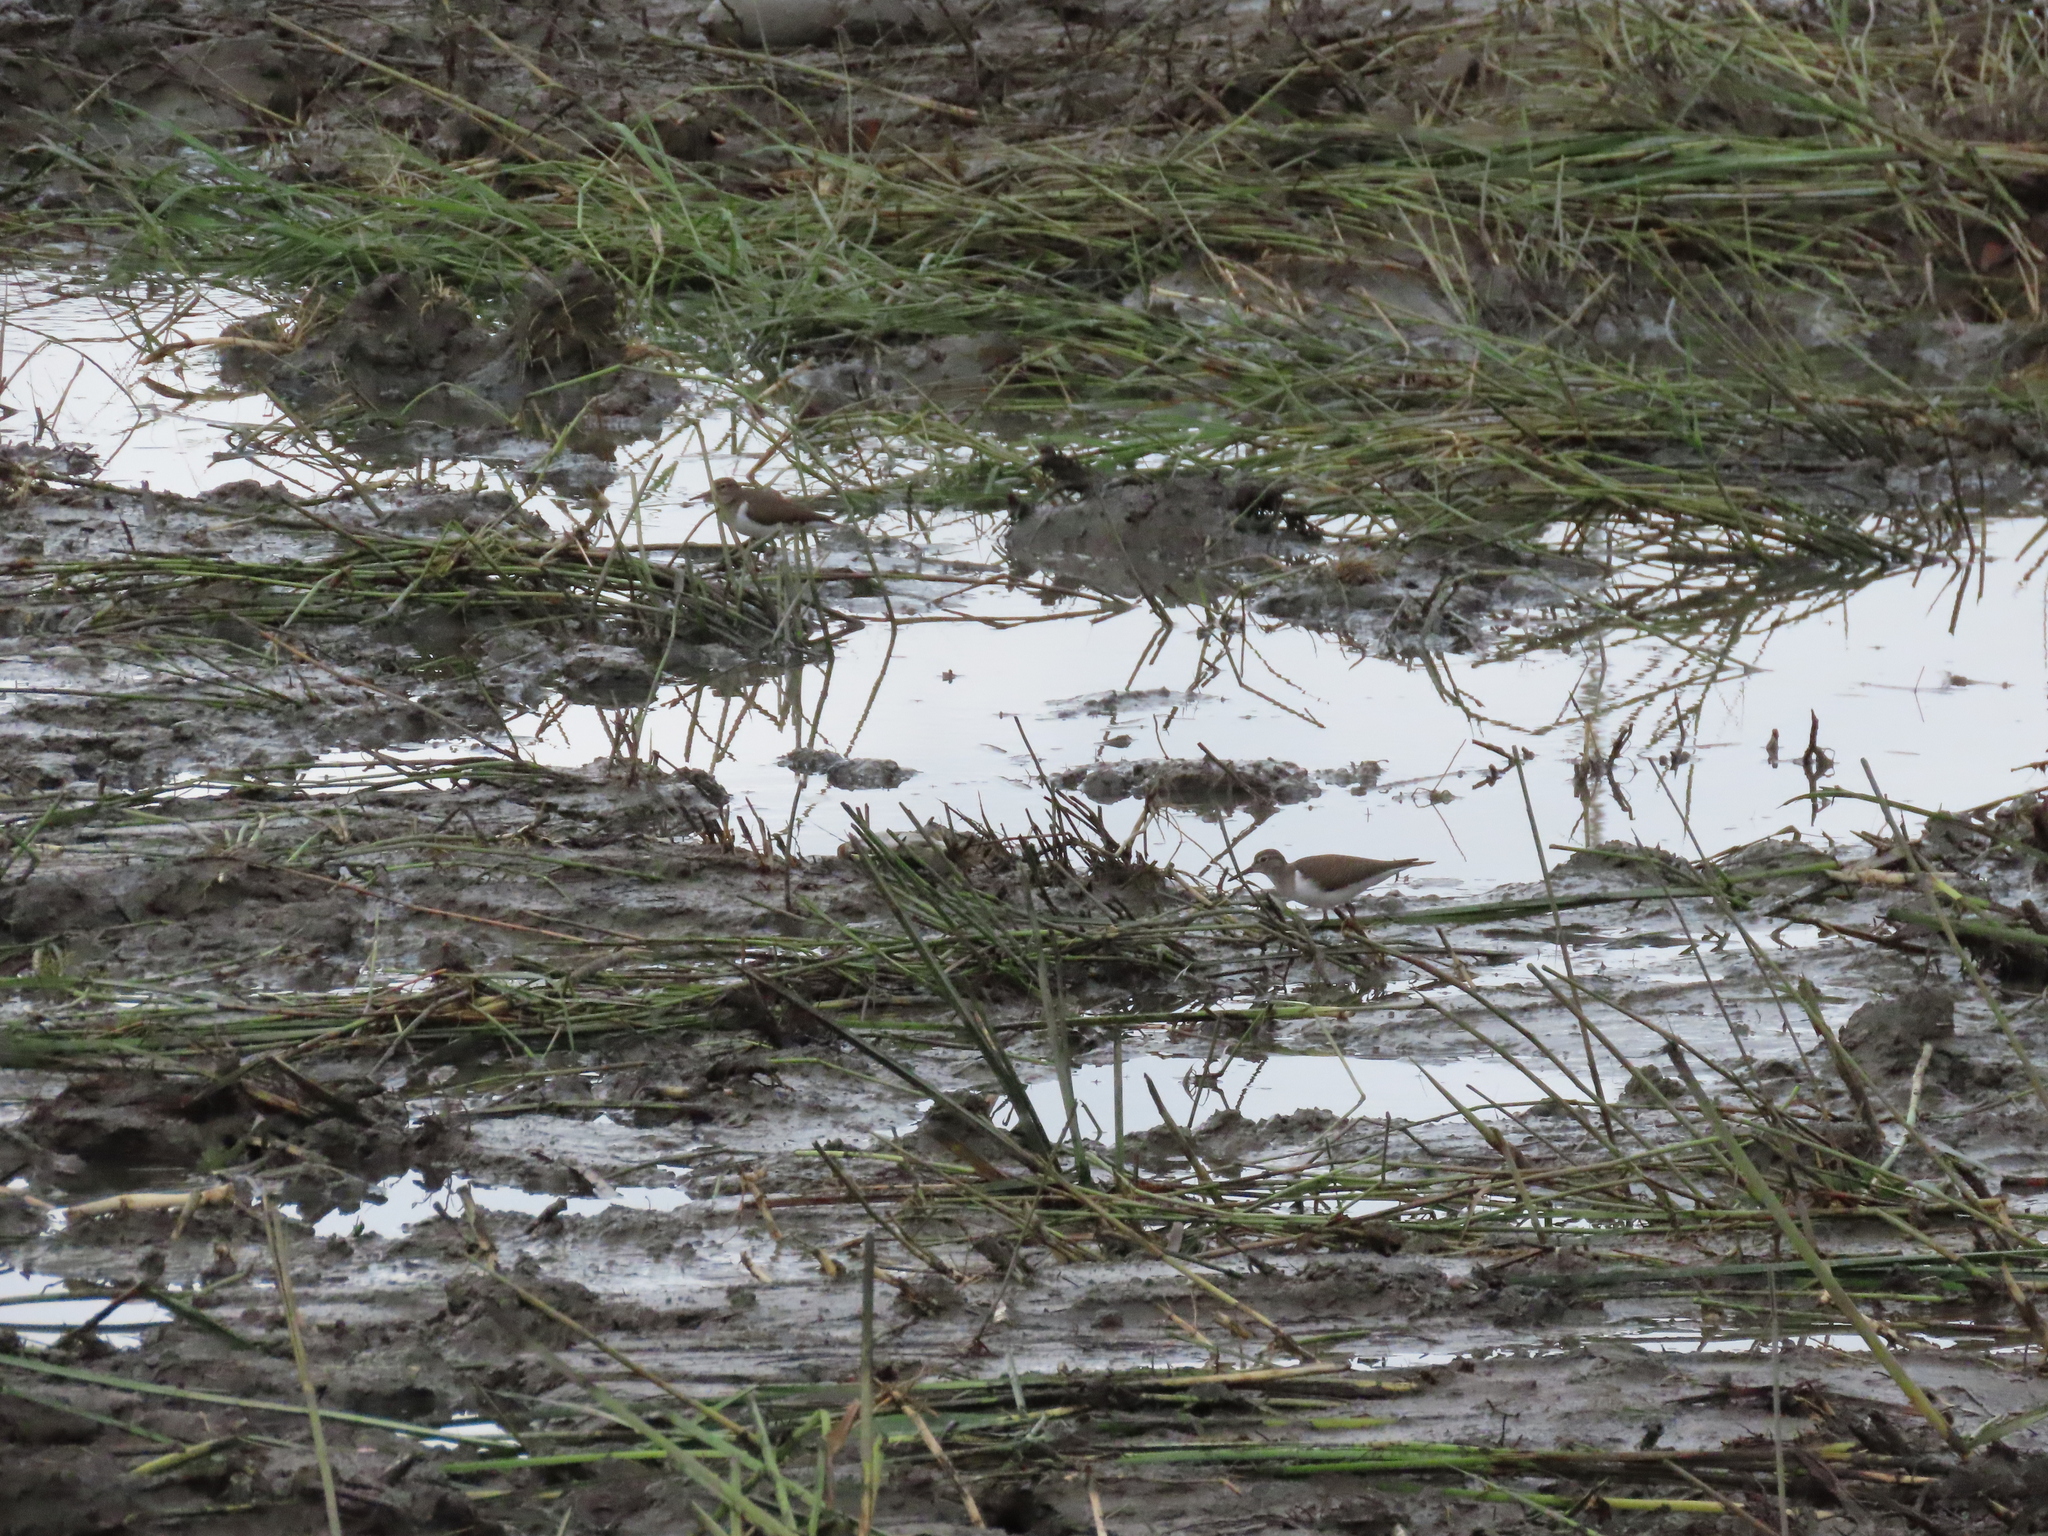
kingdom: Animalia
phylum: Chordata
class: Aves
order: Charadriiformes
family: Scolopacidae
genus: Actitis
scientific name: Actitis hypoleucos
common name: Common sandpiper
